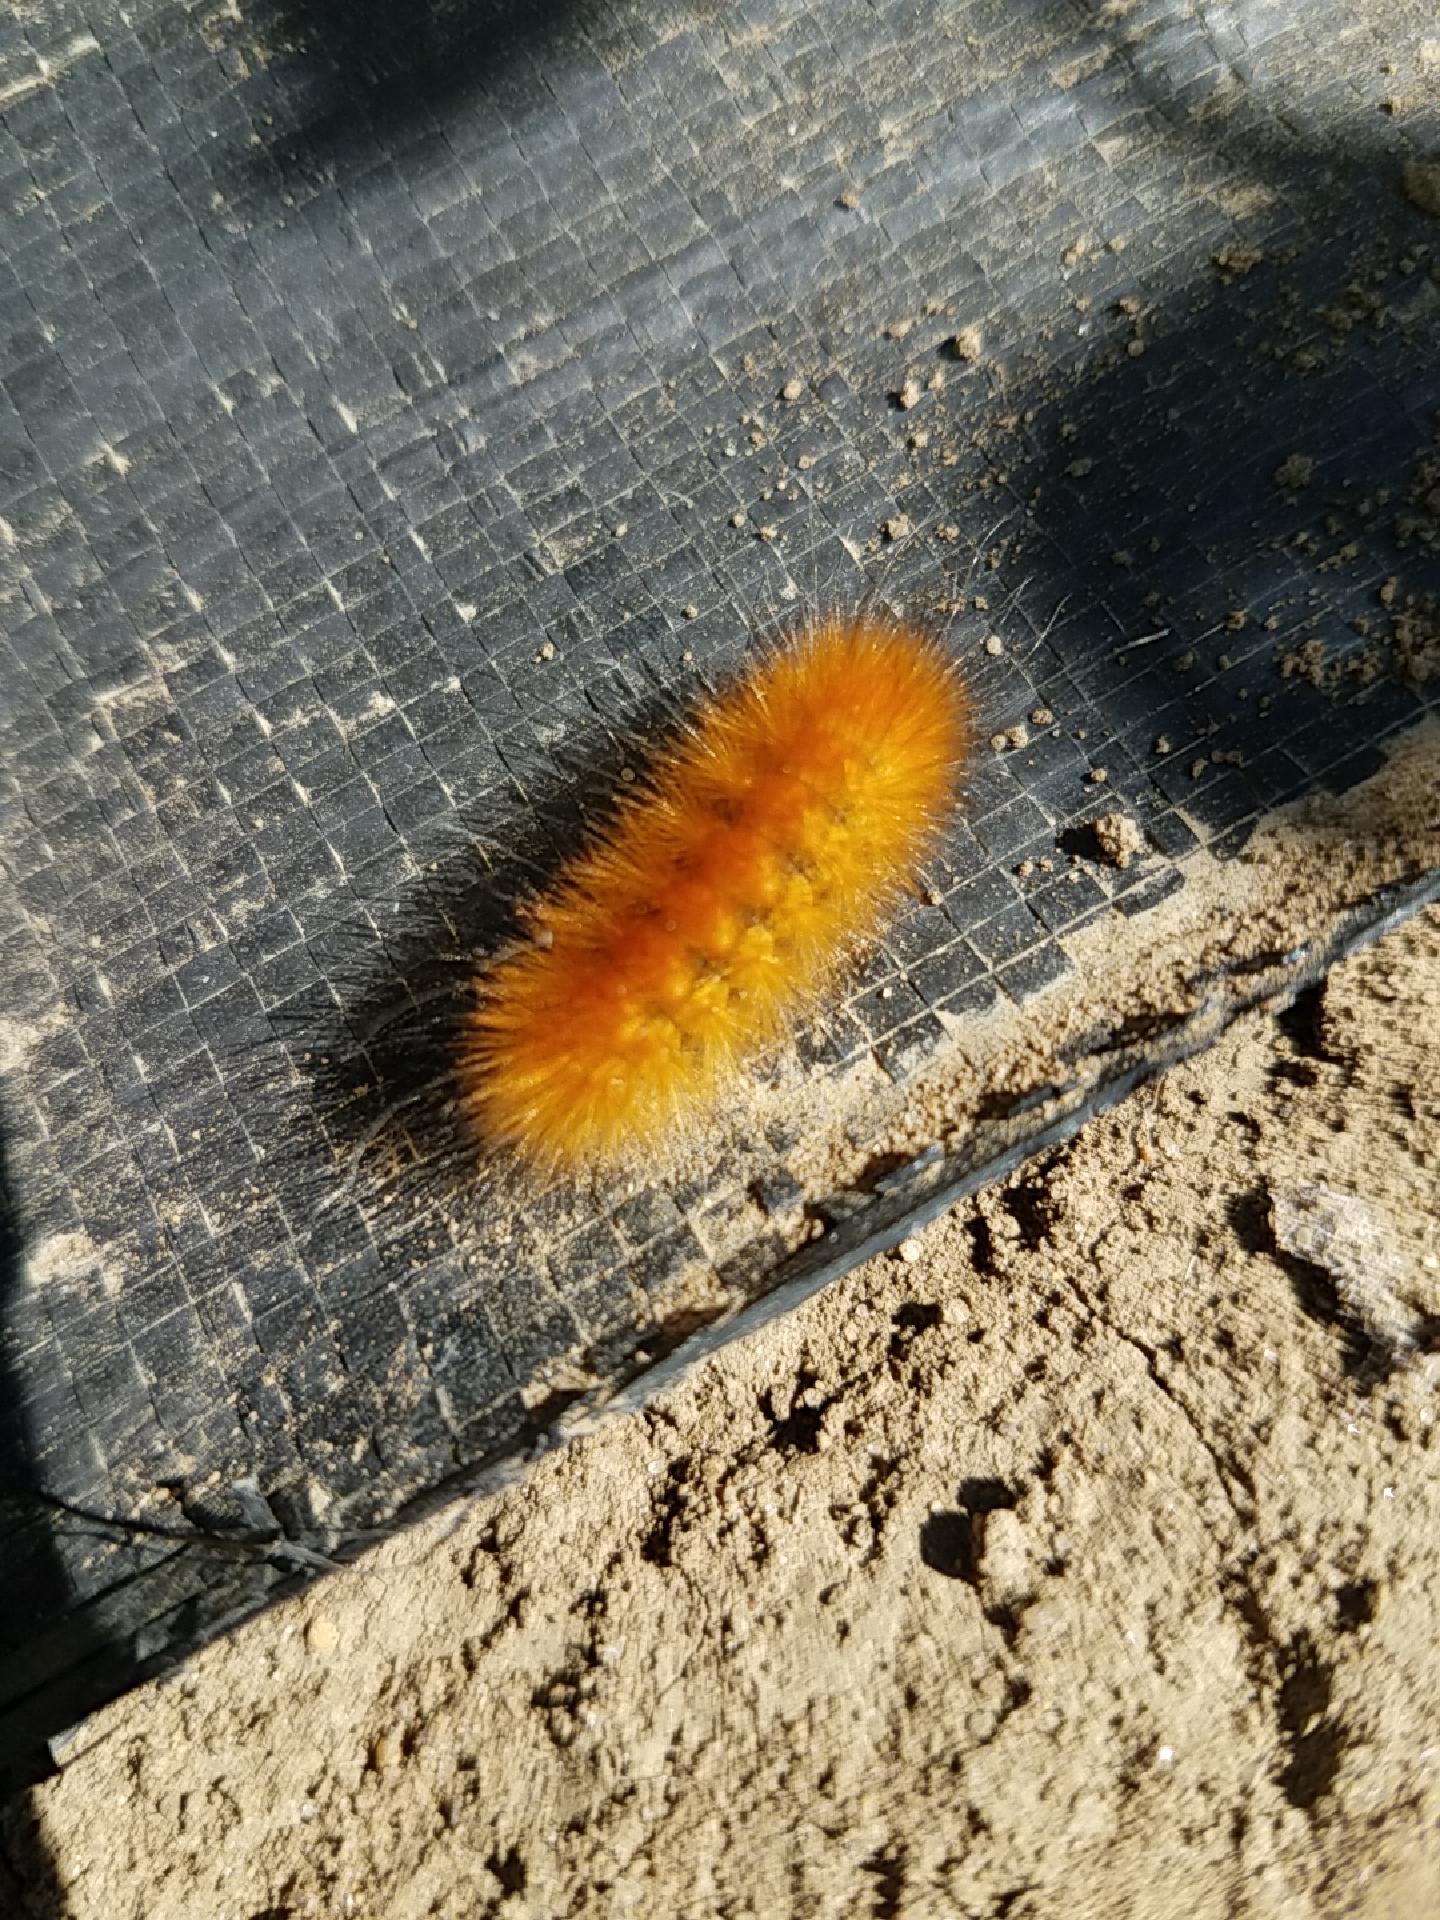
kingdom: Animalia
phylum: Arthropoda
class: Insecta
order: Lepidoptera
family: Erebidae
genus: Spilosoma
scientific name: Spilosoma virginica
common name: Virginia tiger moth
